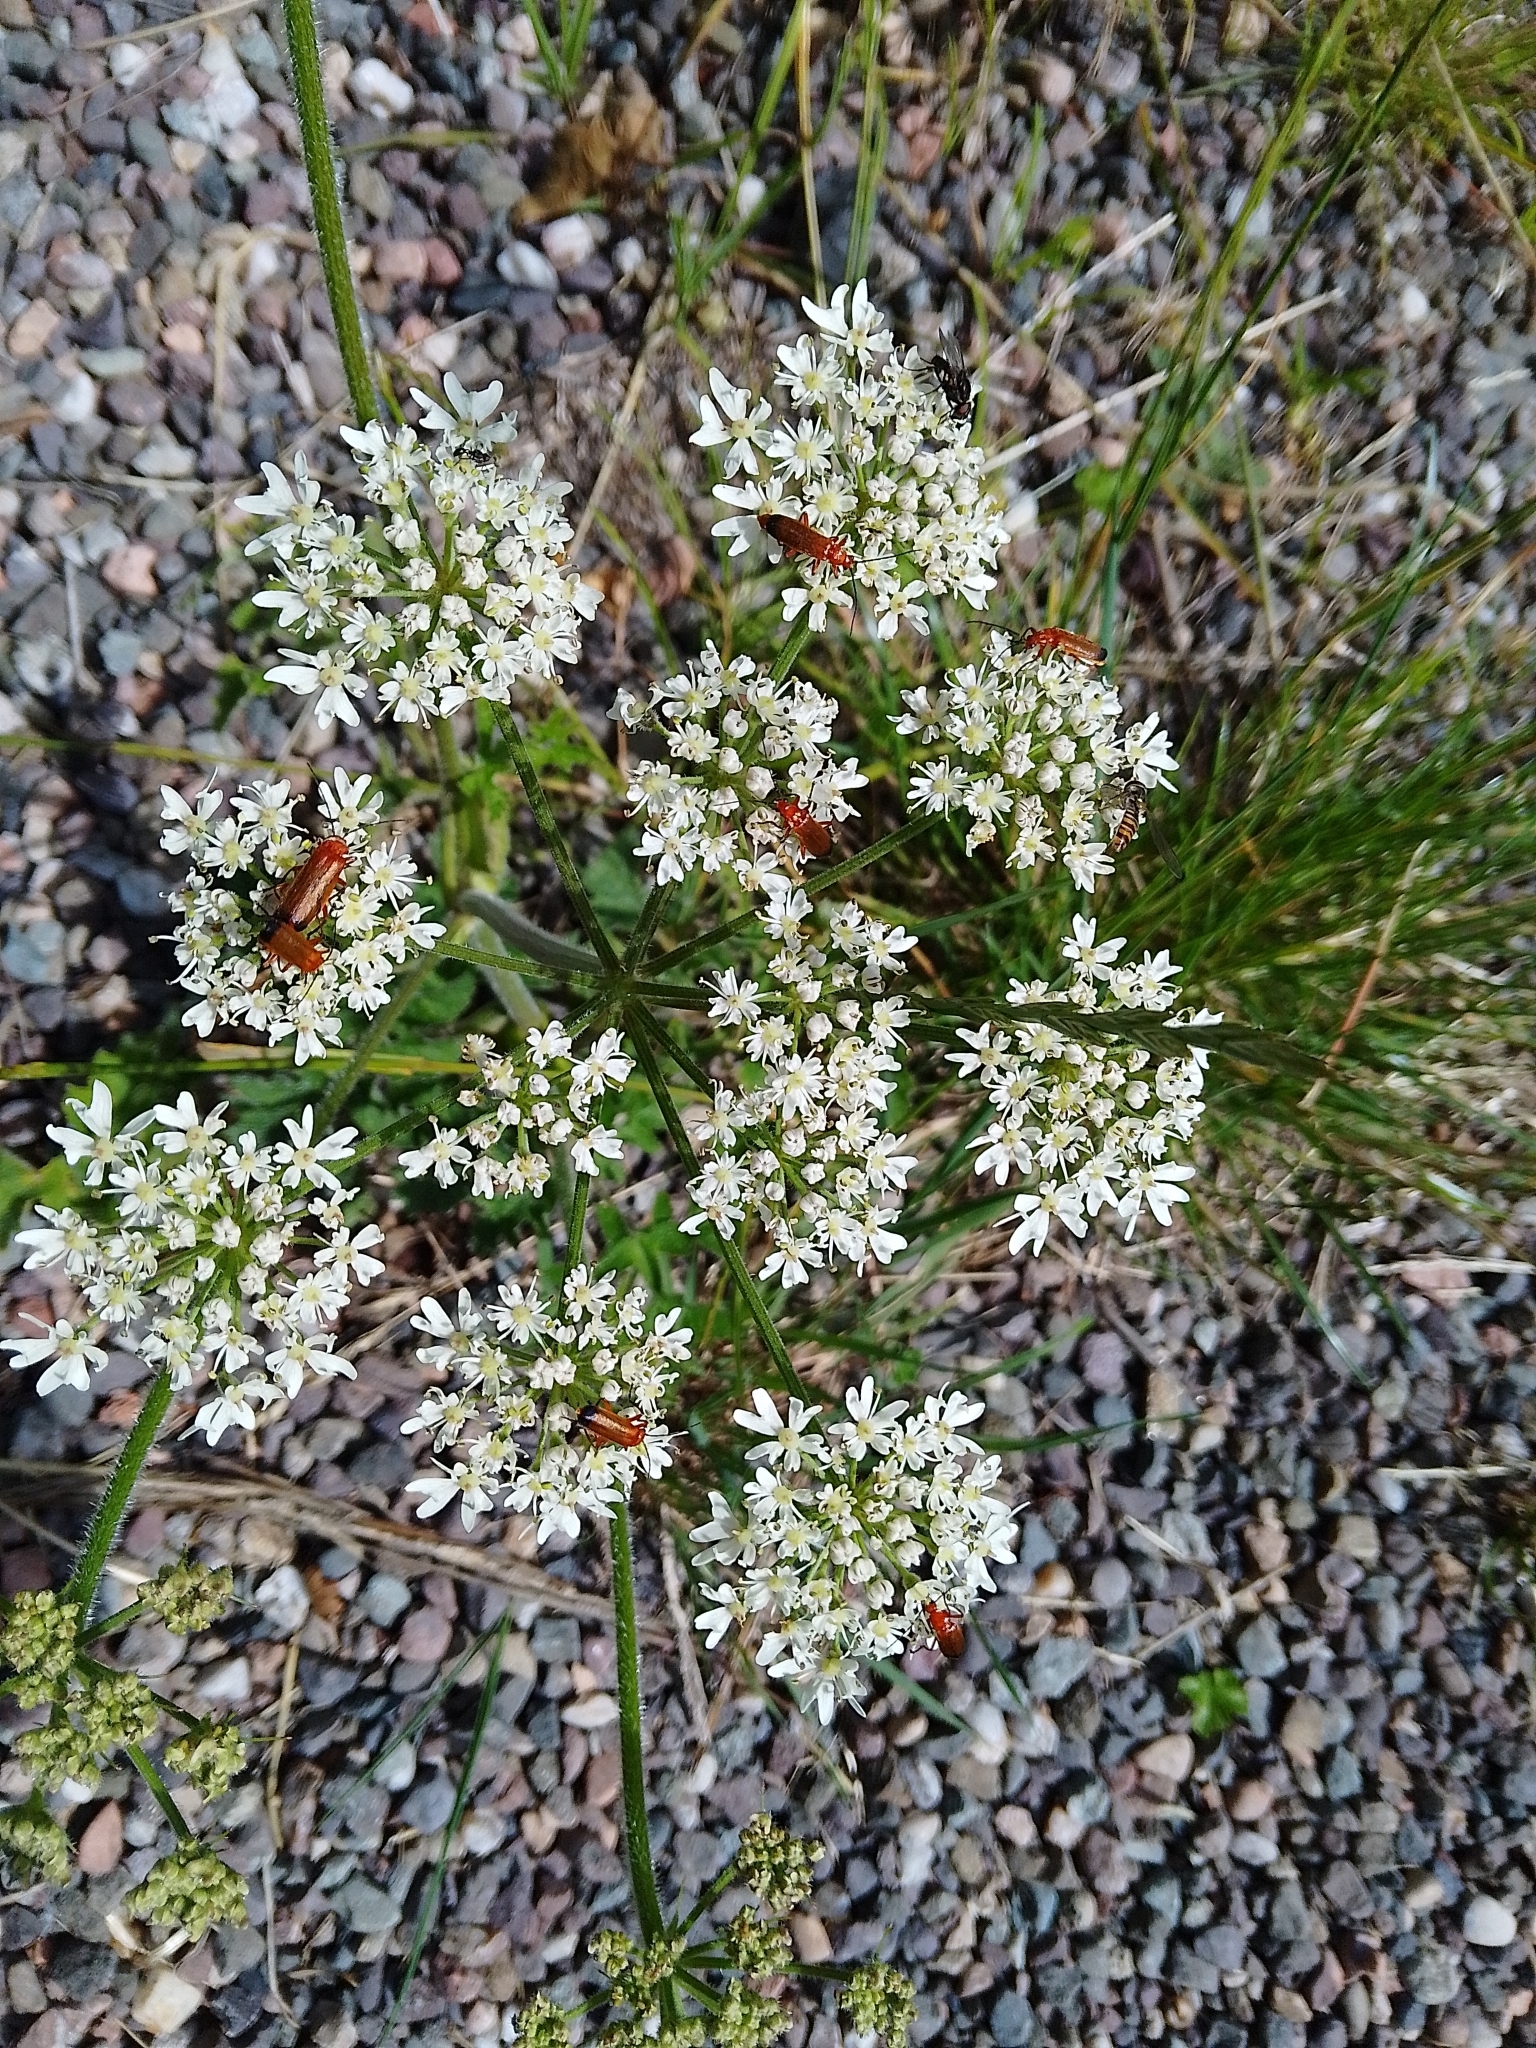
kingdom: Animalia
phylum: Arthropoda
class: Insecta
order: Coleoptera
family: Cantharidae
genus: Rhagonycha
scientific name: Rhagonycha fulva
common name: Common red soldier beetle
